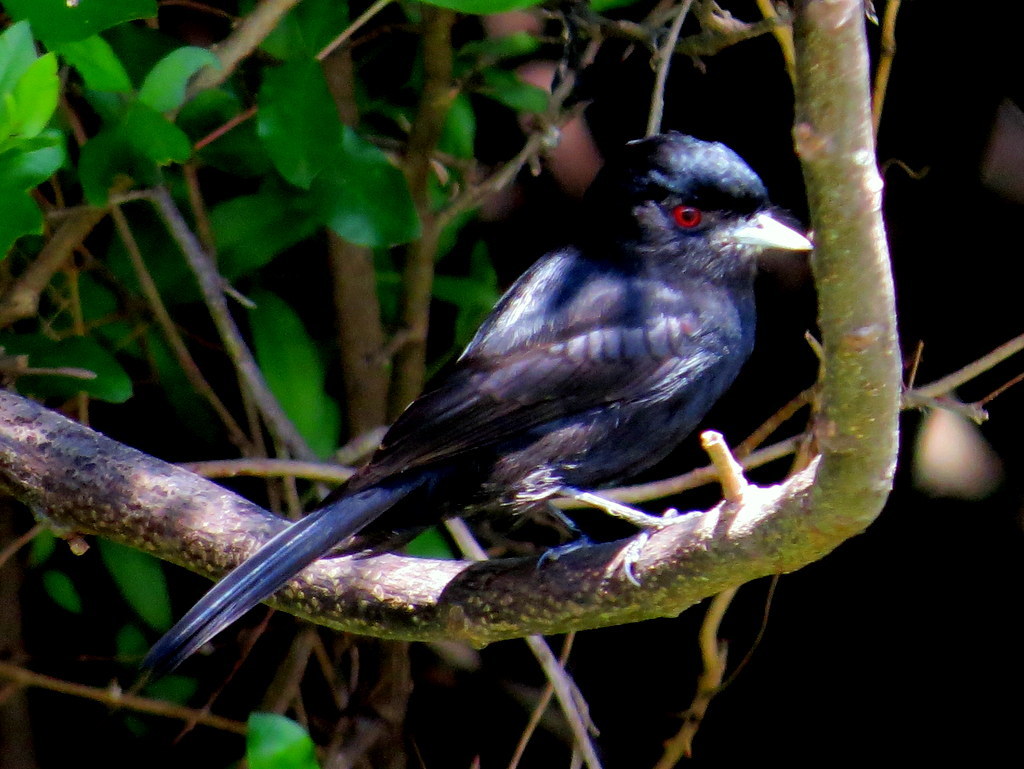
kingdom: Animalia
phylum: Chordata
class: Aves
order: Passeriformes
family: Tyrannidae
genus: Knipolegus
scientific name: Knipolegus cyanirostris
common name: Blue-billed black tyrant
